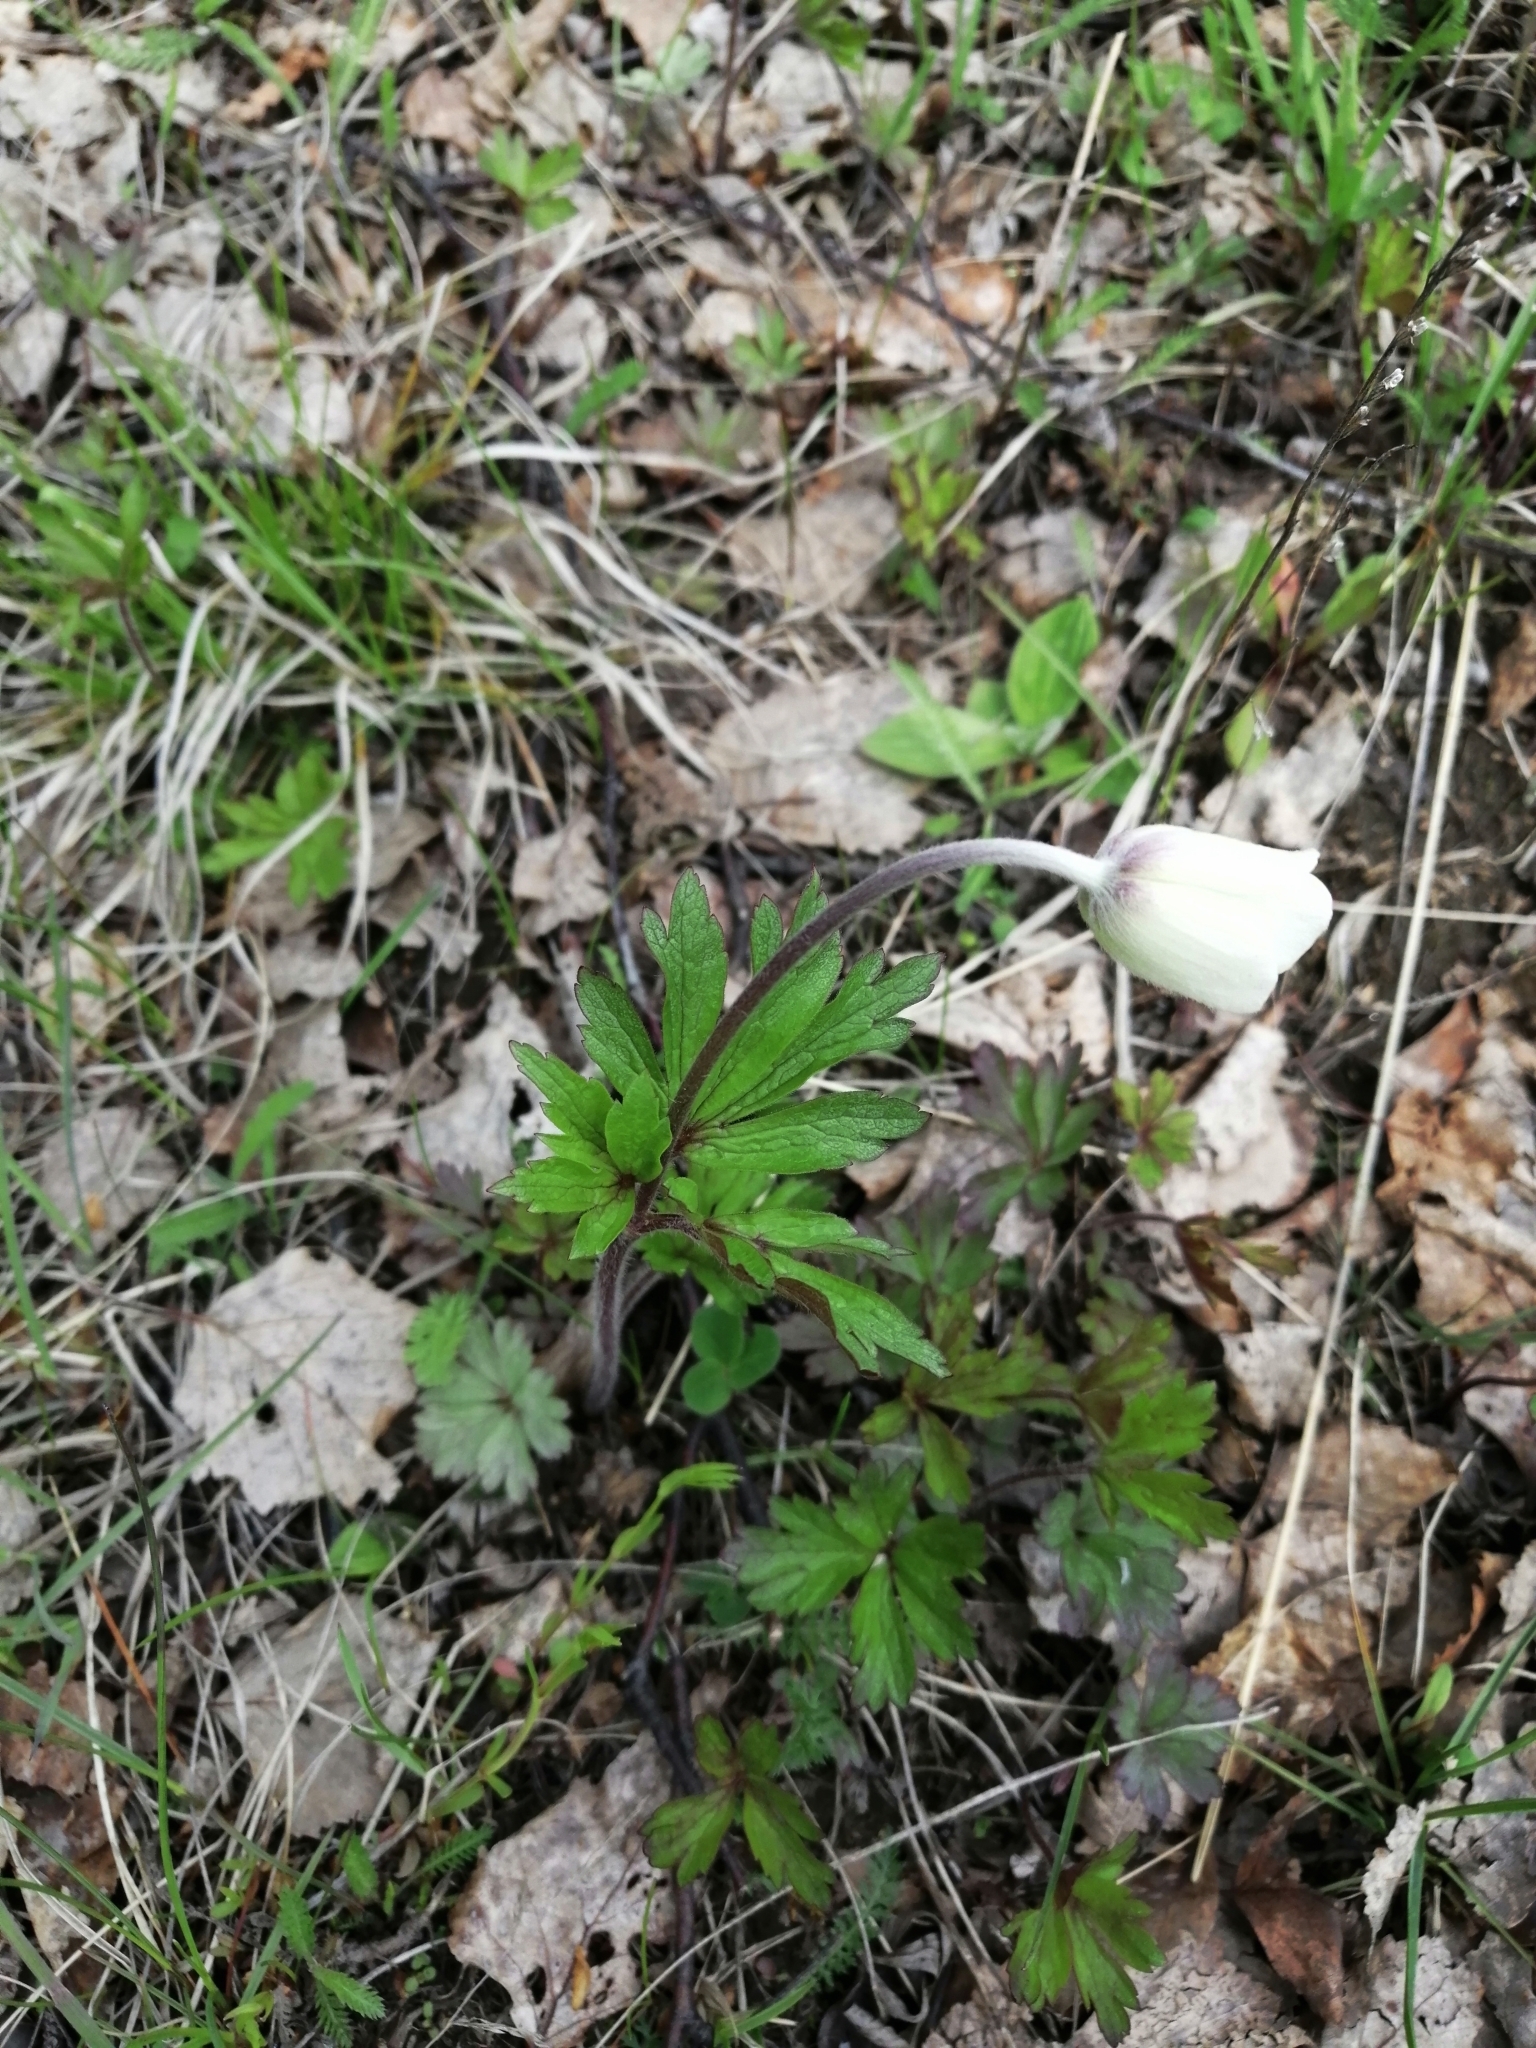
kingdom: Plantae
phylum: Tracheophyta
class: Magnoliopsida
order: Ranunculales
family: Ranunculaceae
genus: Anemone
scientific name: Anemone sylvestris
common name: Snowdrop anemone
